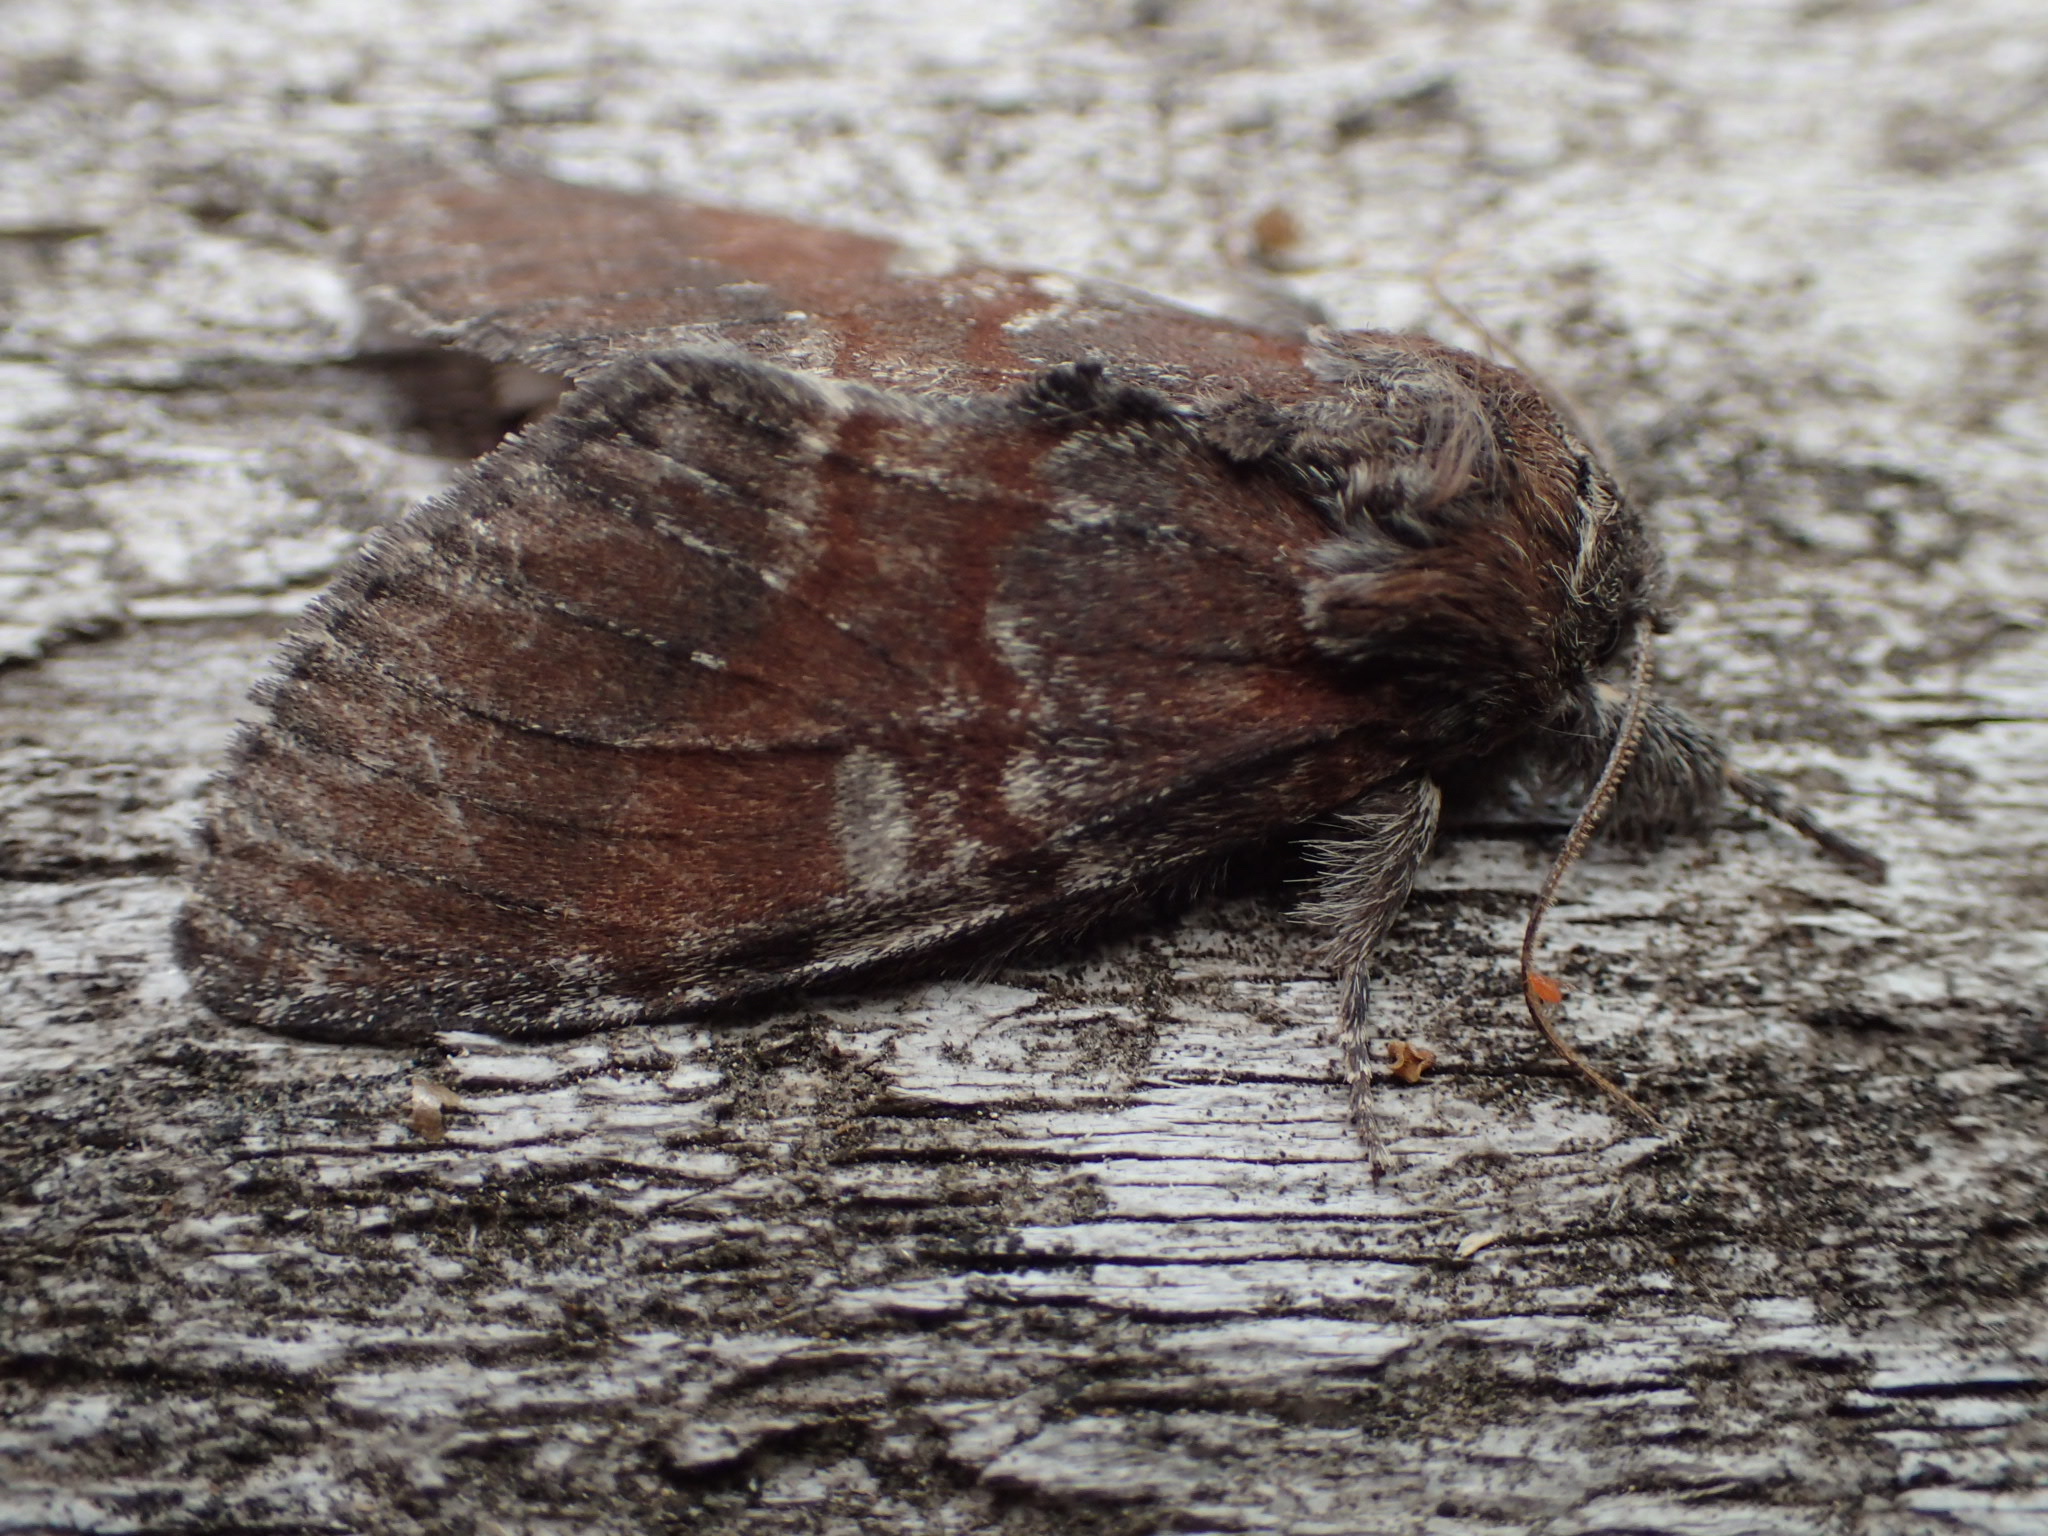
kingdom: Animalia
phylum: Arthropoda
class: Insecta
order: Lepidoptera
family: Notodontidae
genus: Peridea
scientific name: Peridea ferruginea
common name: Chocolate prominent
